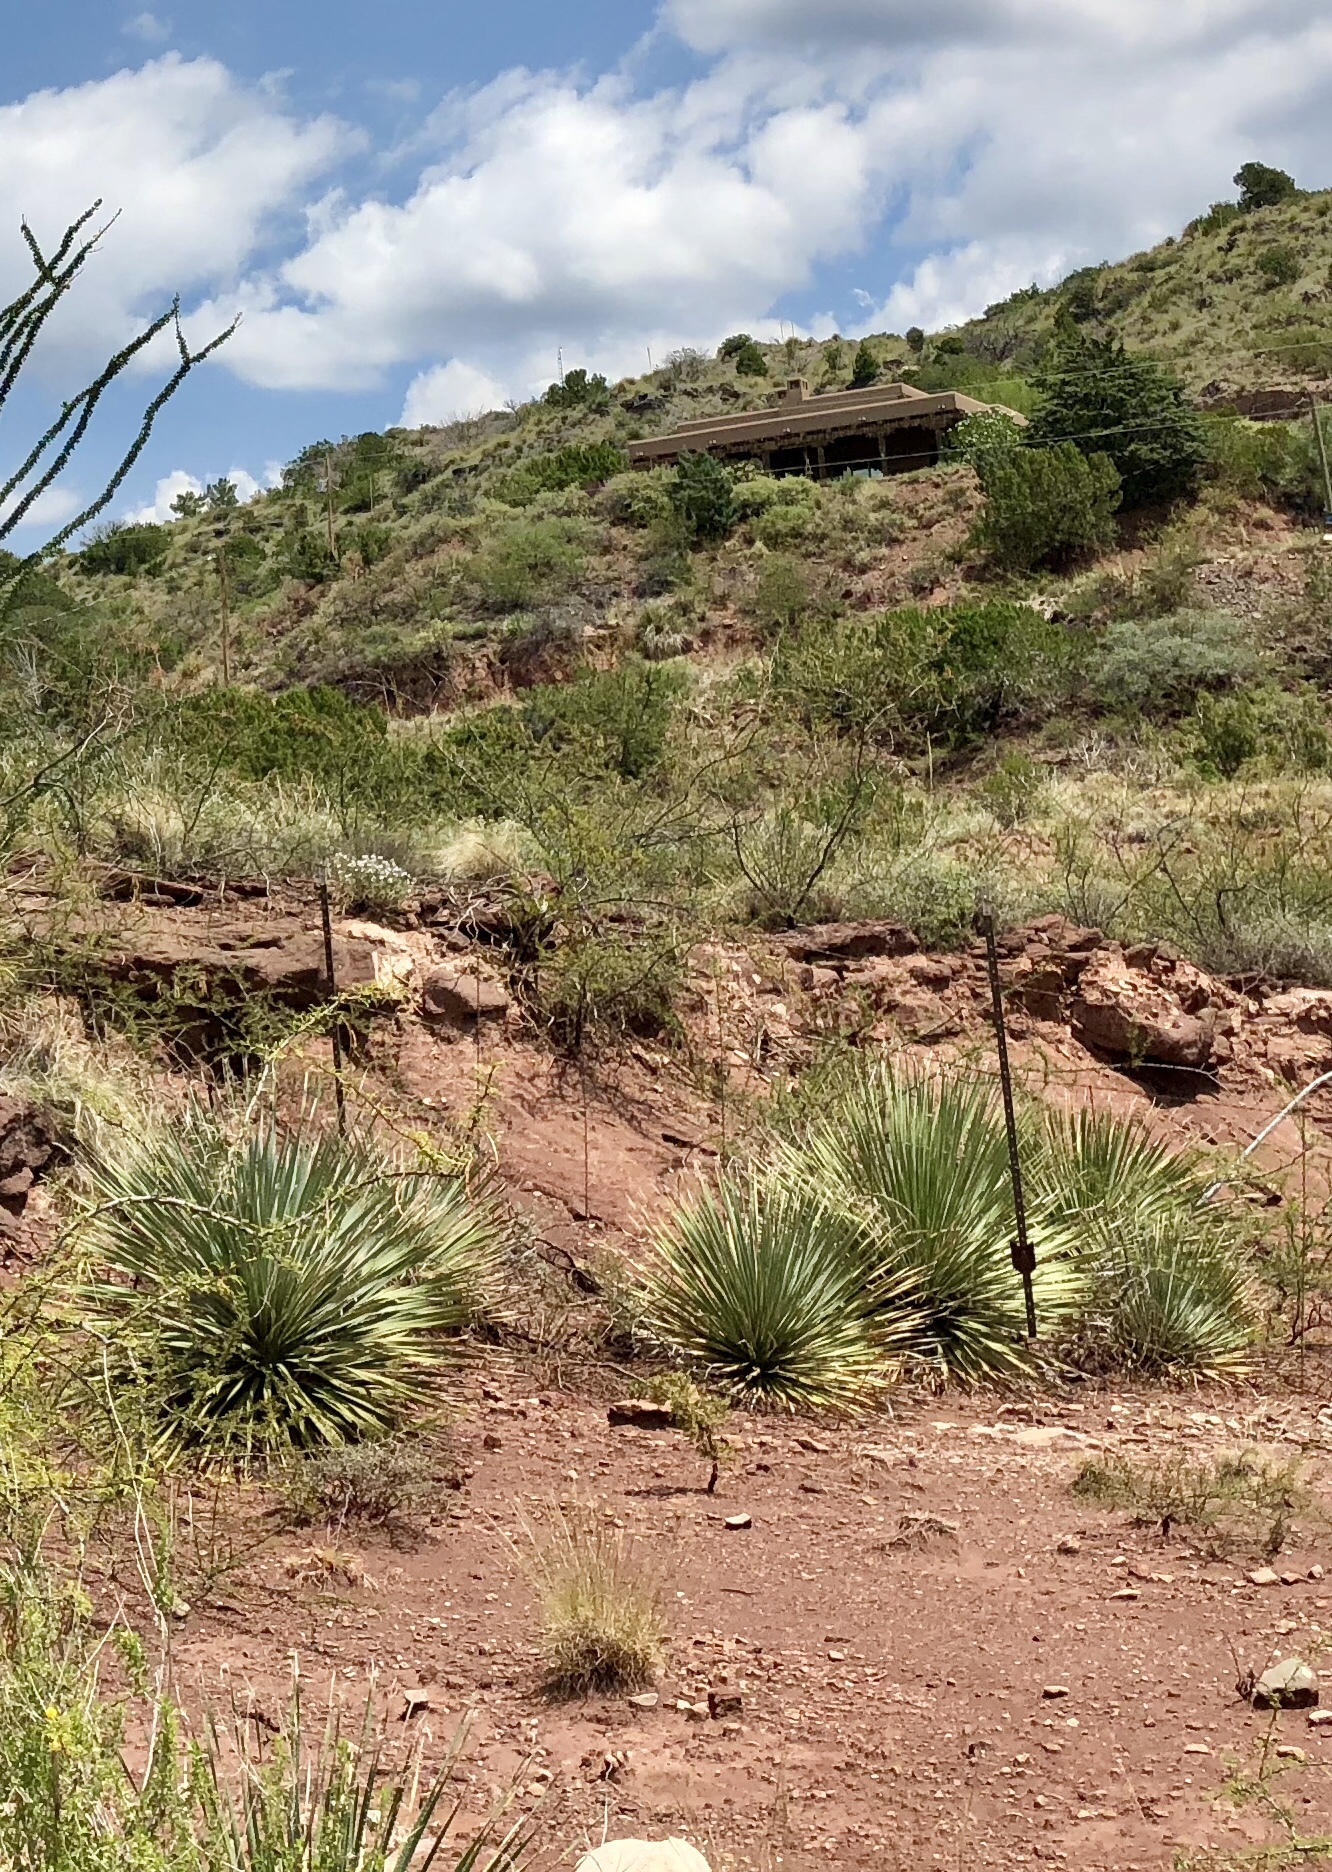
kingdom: Plantae
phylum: Tracheophyta
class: Liliopsida
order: Asparagales
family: Asparagaceae
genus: Dasylirion
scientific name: Dasylirion wheeleri
